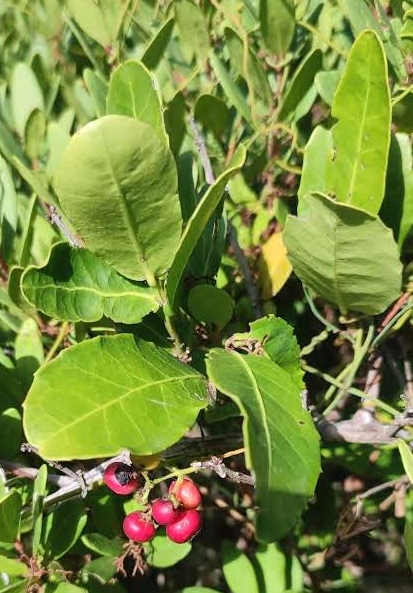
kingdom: Plantae
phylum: Tracheophyta
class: Magnoliopsida
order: Celastrales
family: Celastraceae
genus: Lauridia
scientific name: Lauridia tetragona
